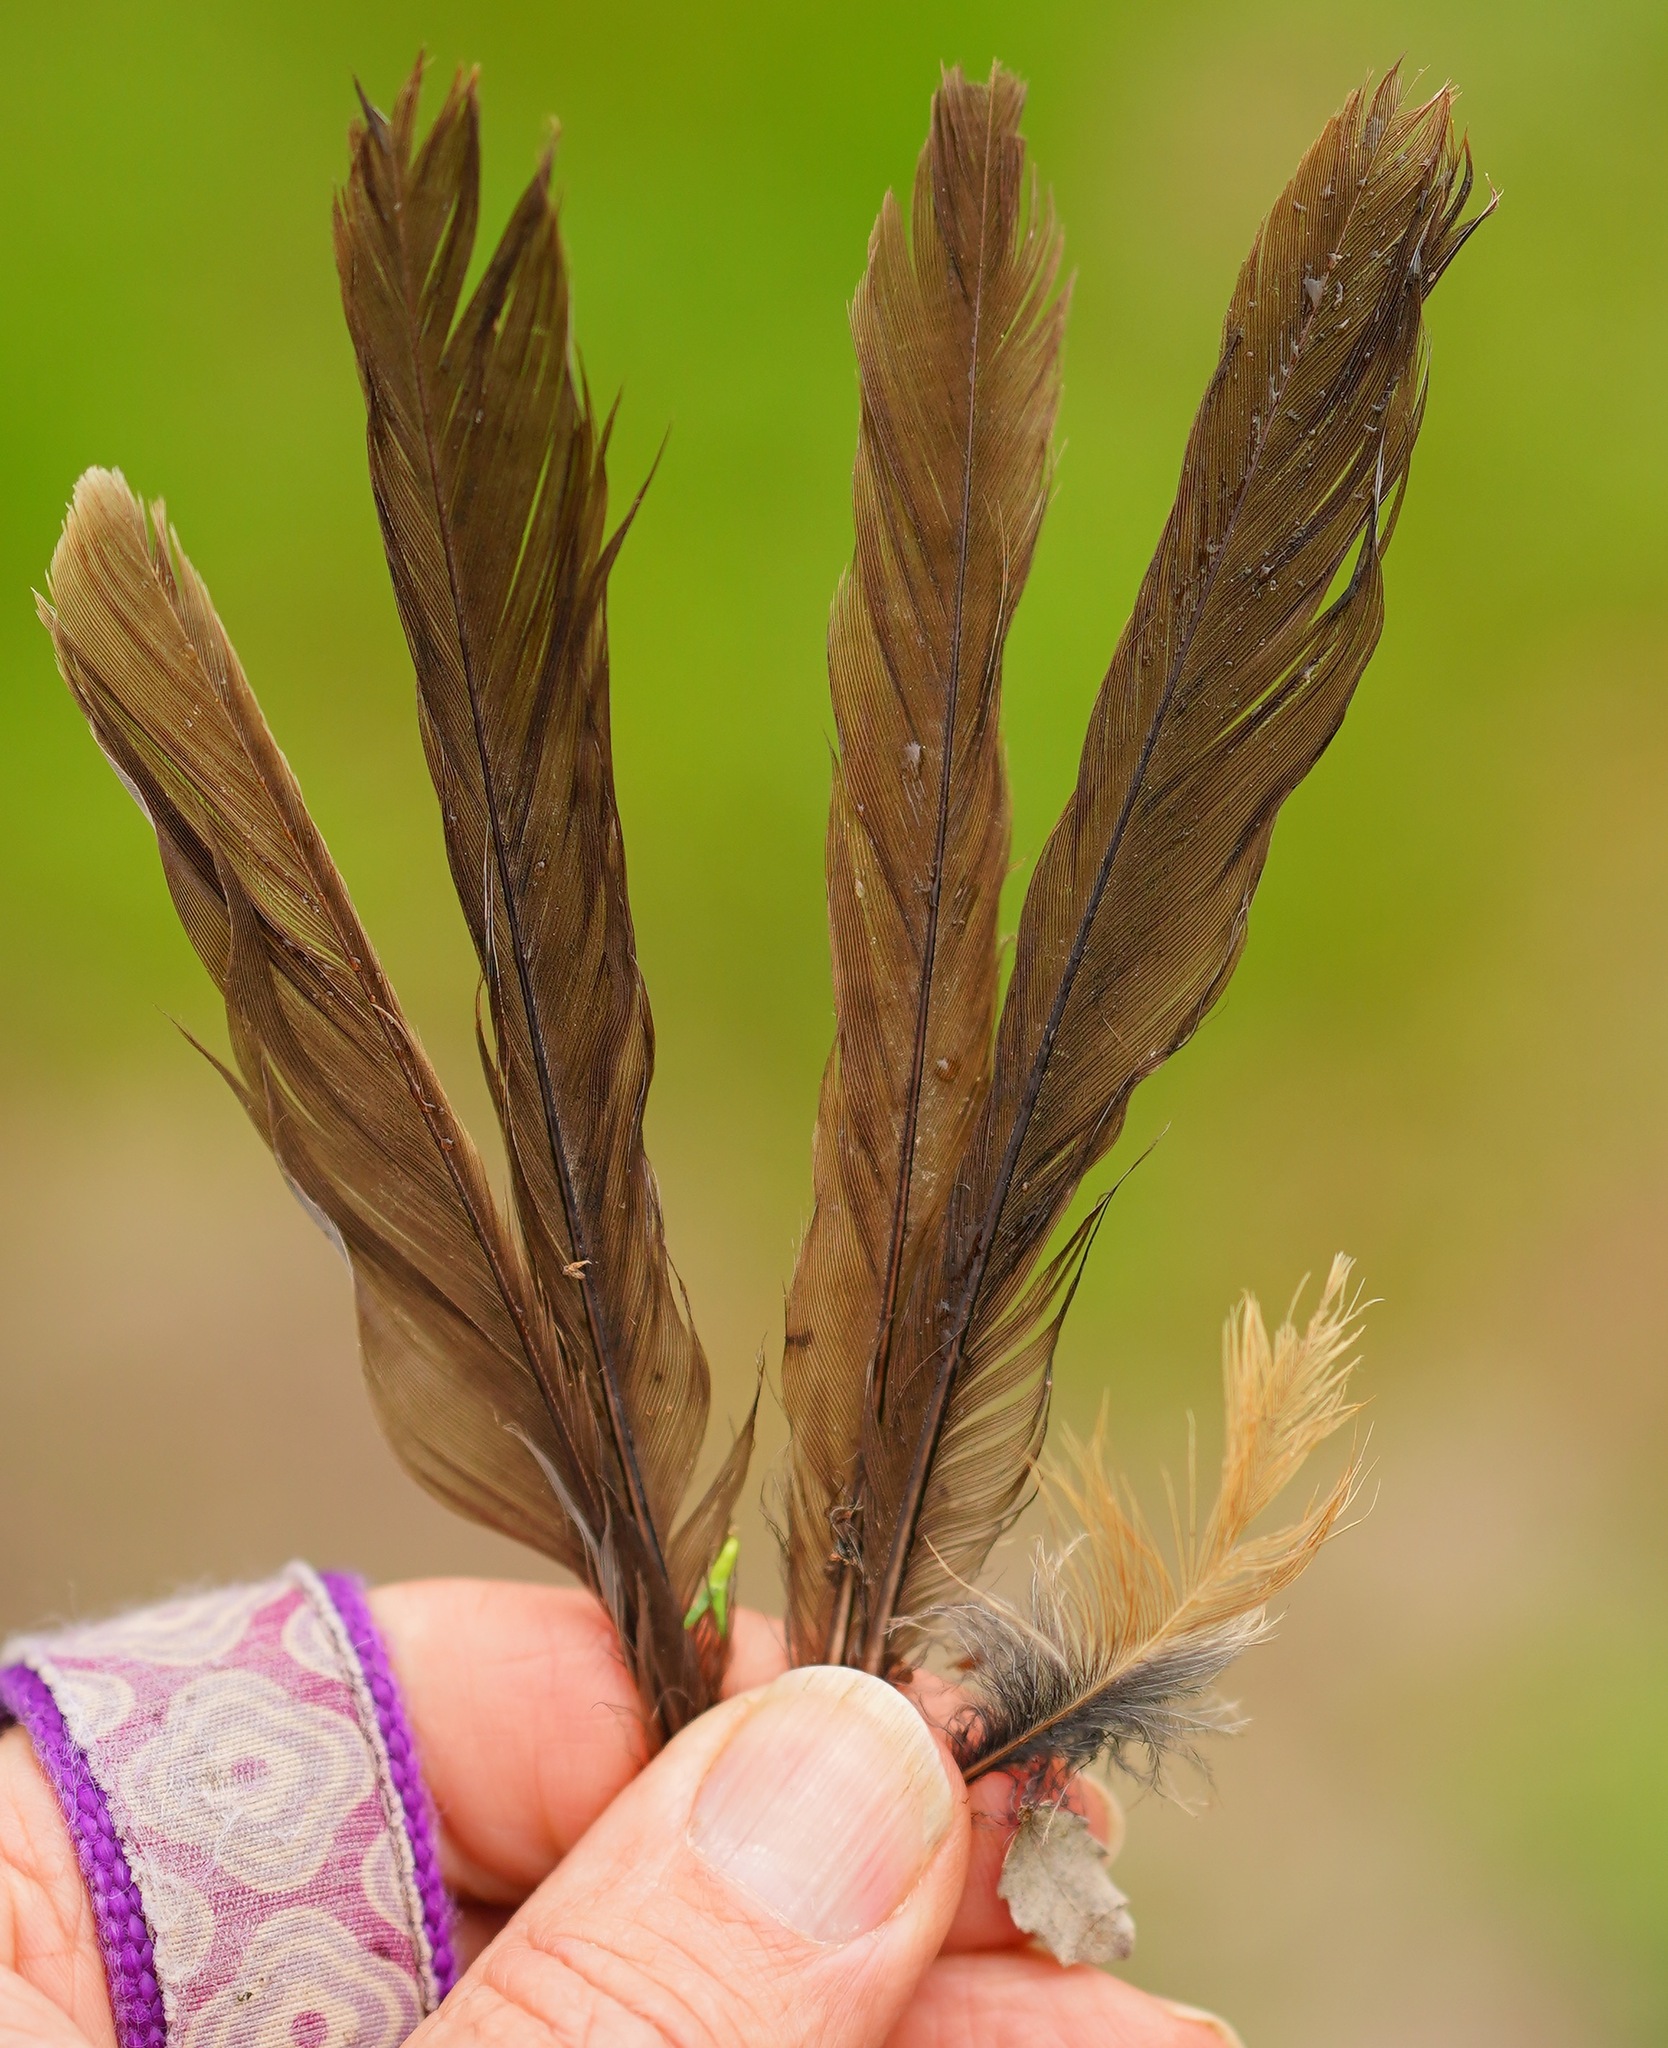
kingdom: Animalia
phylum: Chordata
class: Aves
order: Passeriformes
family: Mimidae
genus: Toxostoma
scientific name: Toxostoma redivivum
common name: California thrasher
